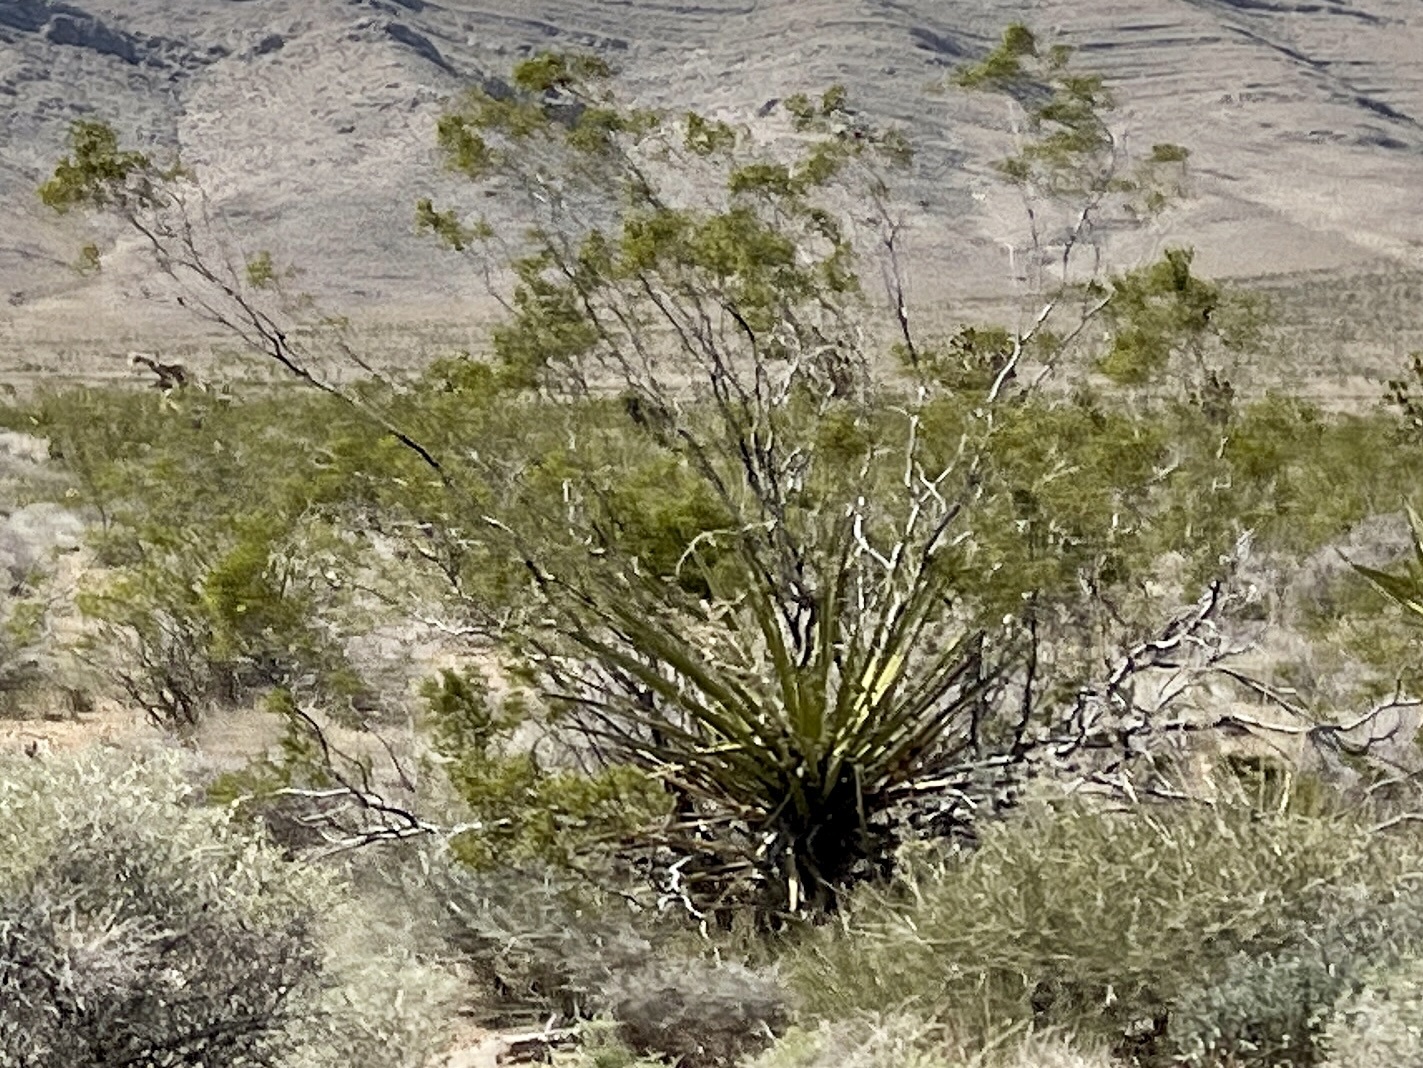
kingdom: Plantae
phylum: Tracheophyta
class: Magnoliopsida
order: Zygophyllales
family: Zygophyllaceae
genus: Larrea
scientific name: Larrea tridentata
